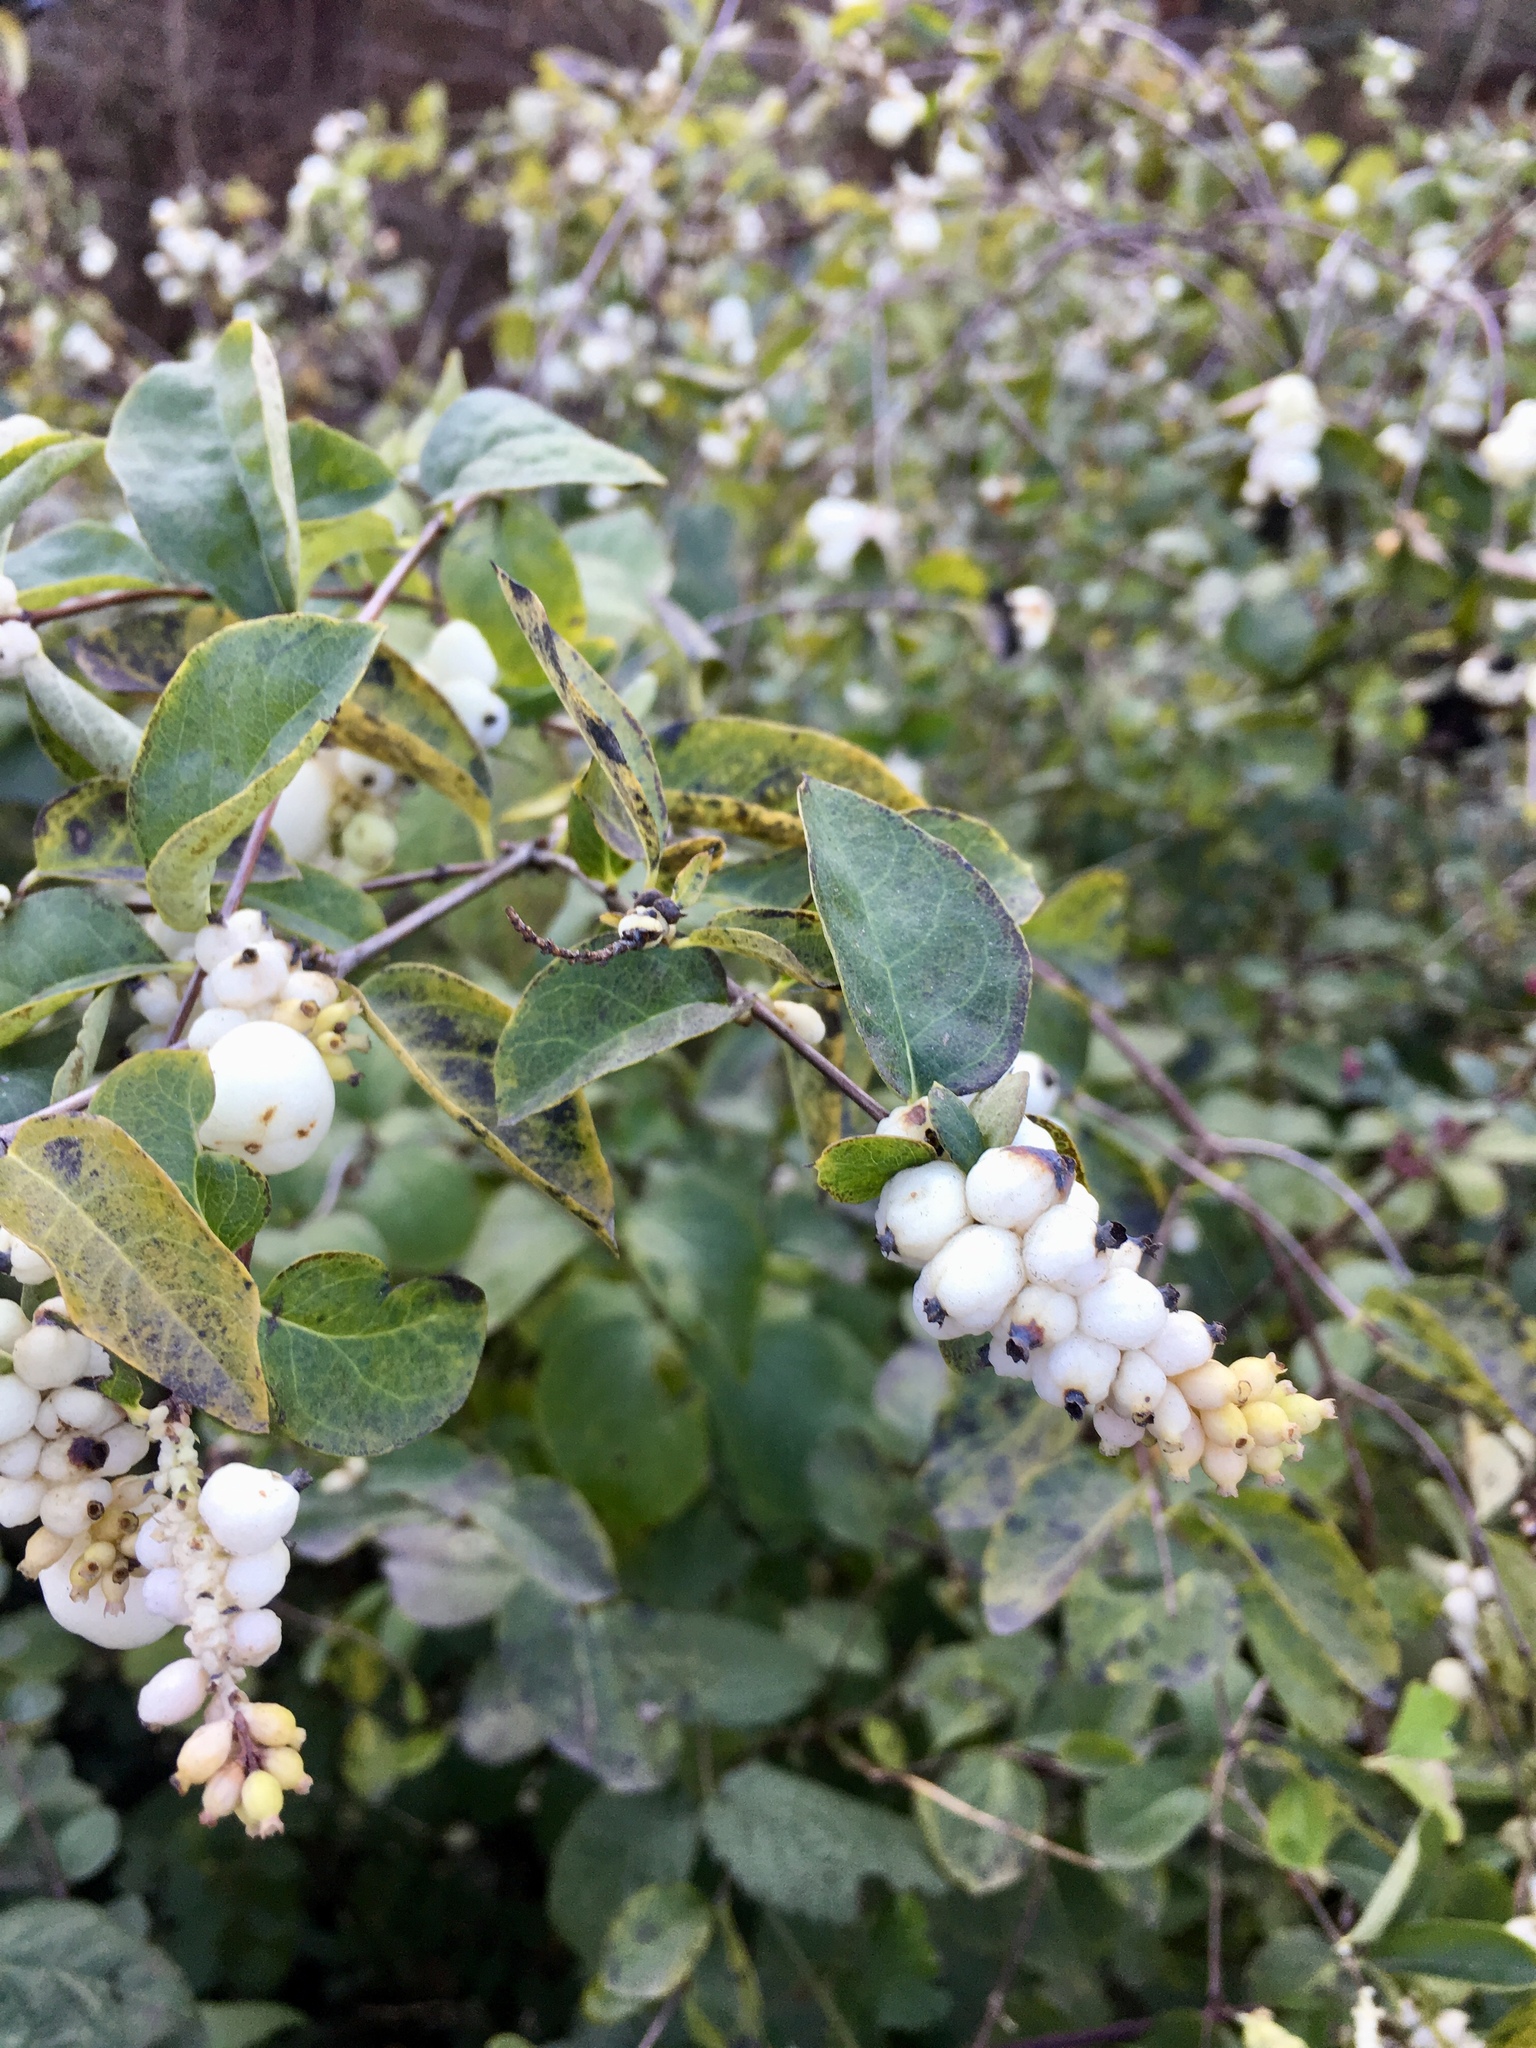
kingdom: Plantae
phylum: Tracheophyta
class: Magnoliopsida
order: Dipsacales
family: Caprifoliaceae
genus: Symphoricarpos
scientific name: Symphoricarpos albus
